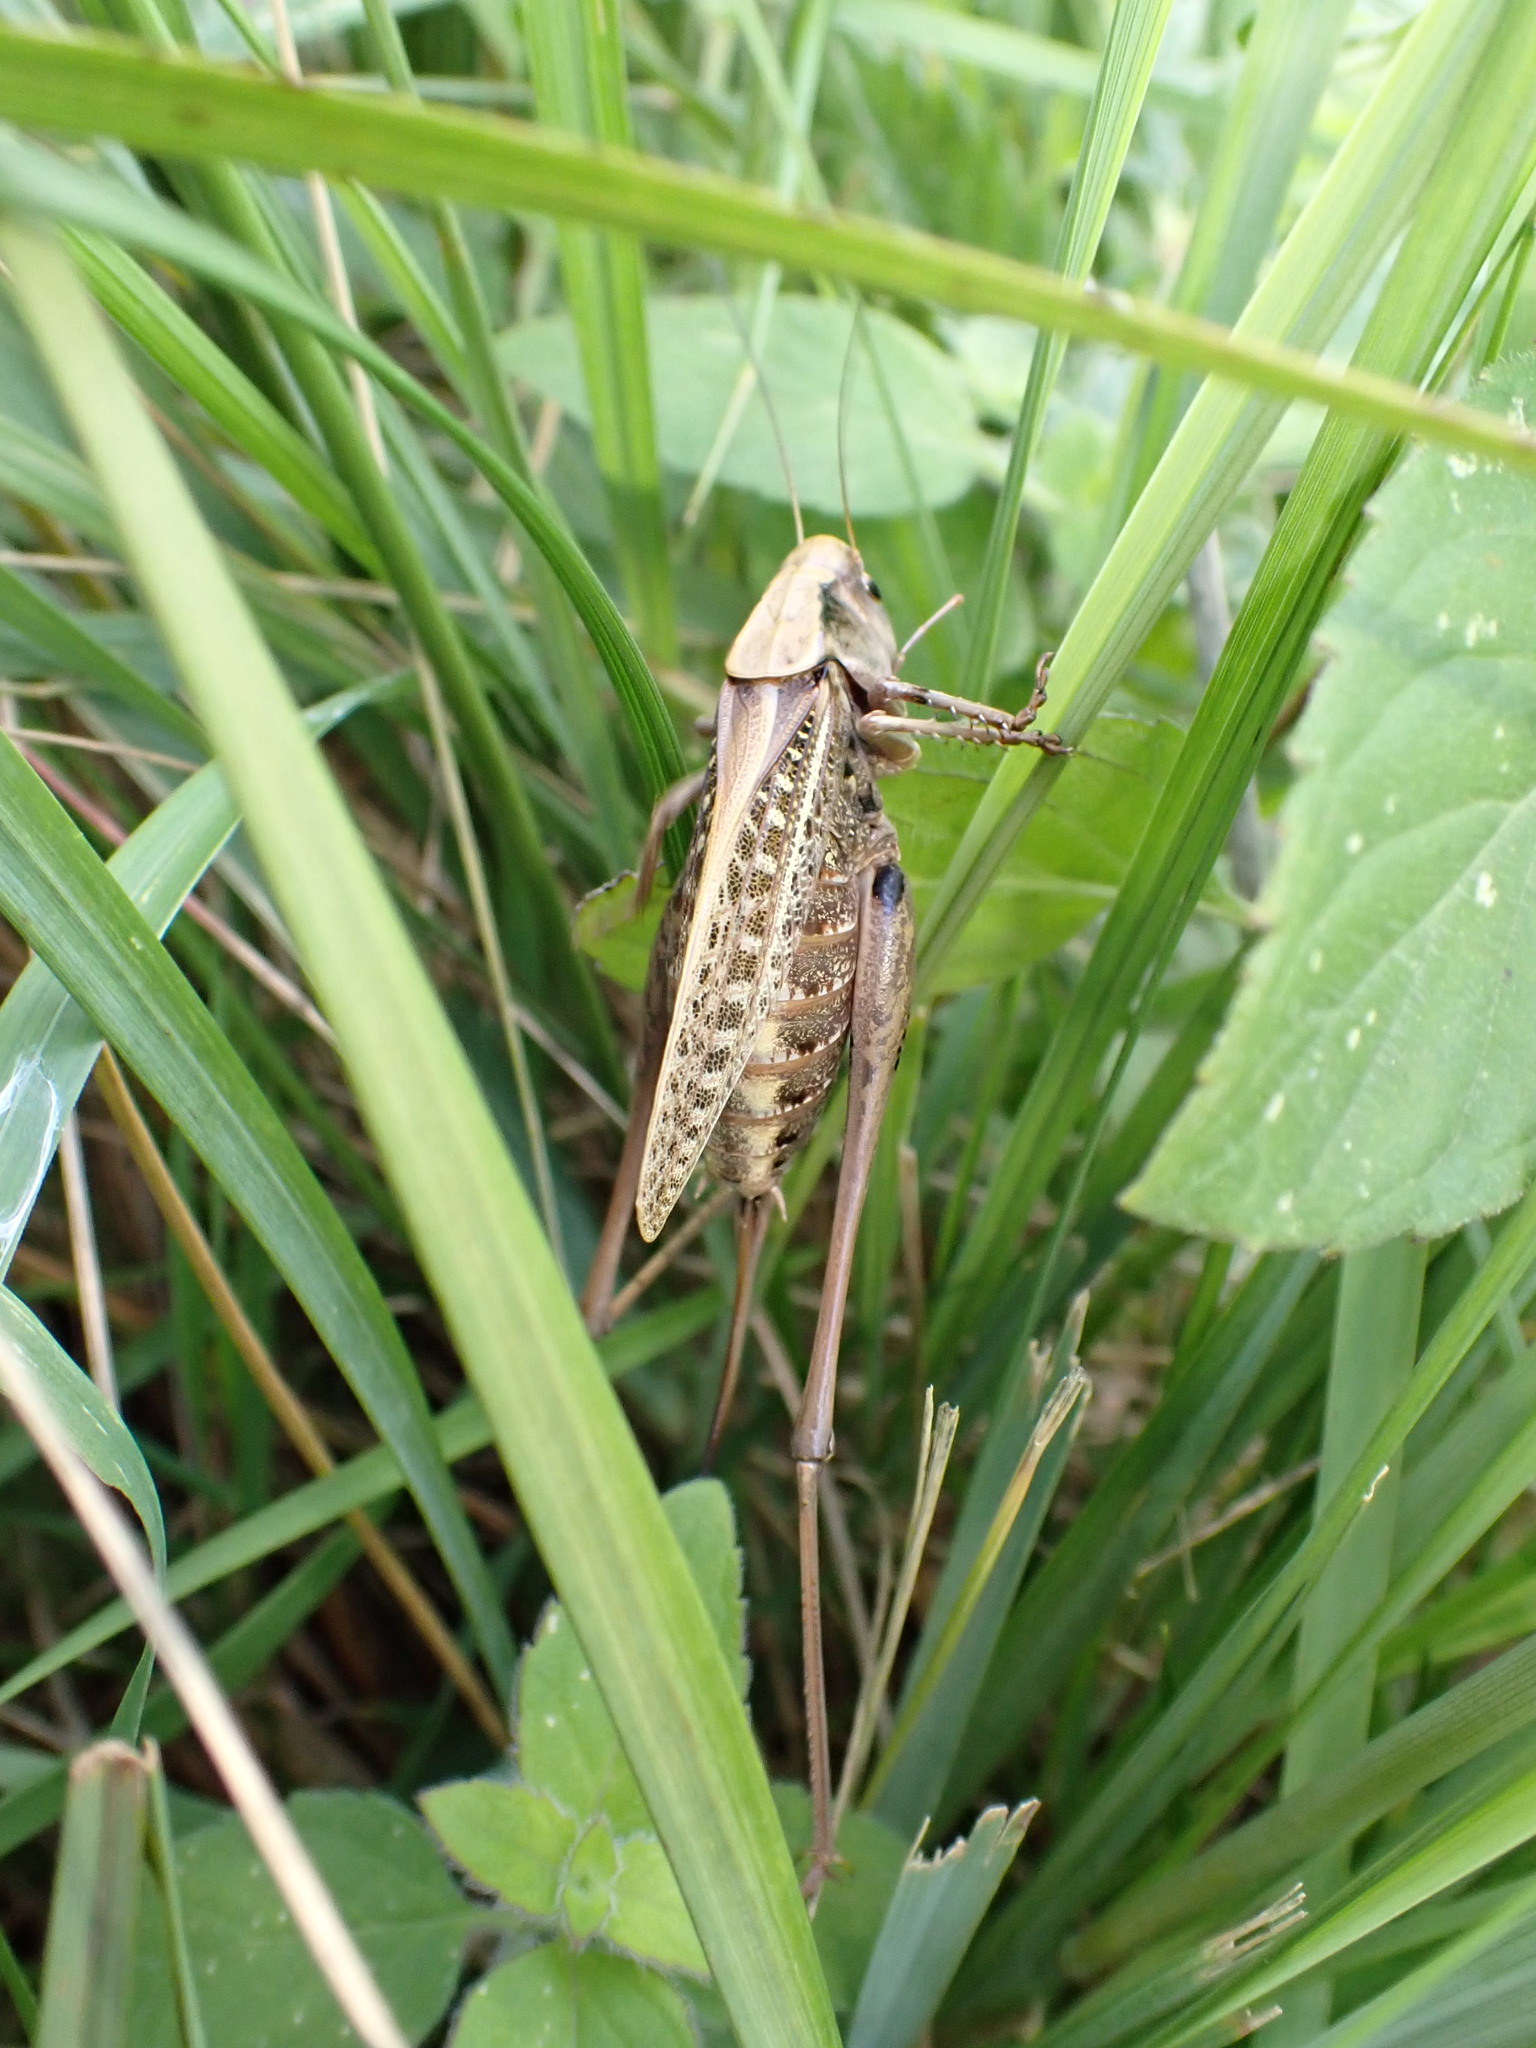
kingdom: Animalia
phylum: Arthropoda
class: Insecta
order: Orthoptera
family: Tettigoniidae
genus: Decticus
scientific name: Decticus verrucivorus
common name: Wart-biter
